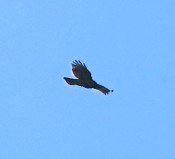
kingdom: Animalia
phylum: Chordata
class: Aves
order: Accipitriformes
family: Accipitridae
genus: Buteo
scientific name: Buteo jamaicensis
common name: Red-tailed hawk
